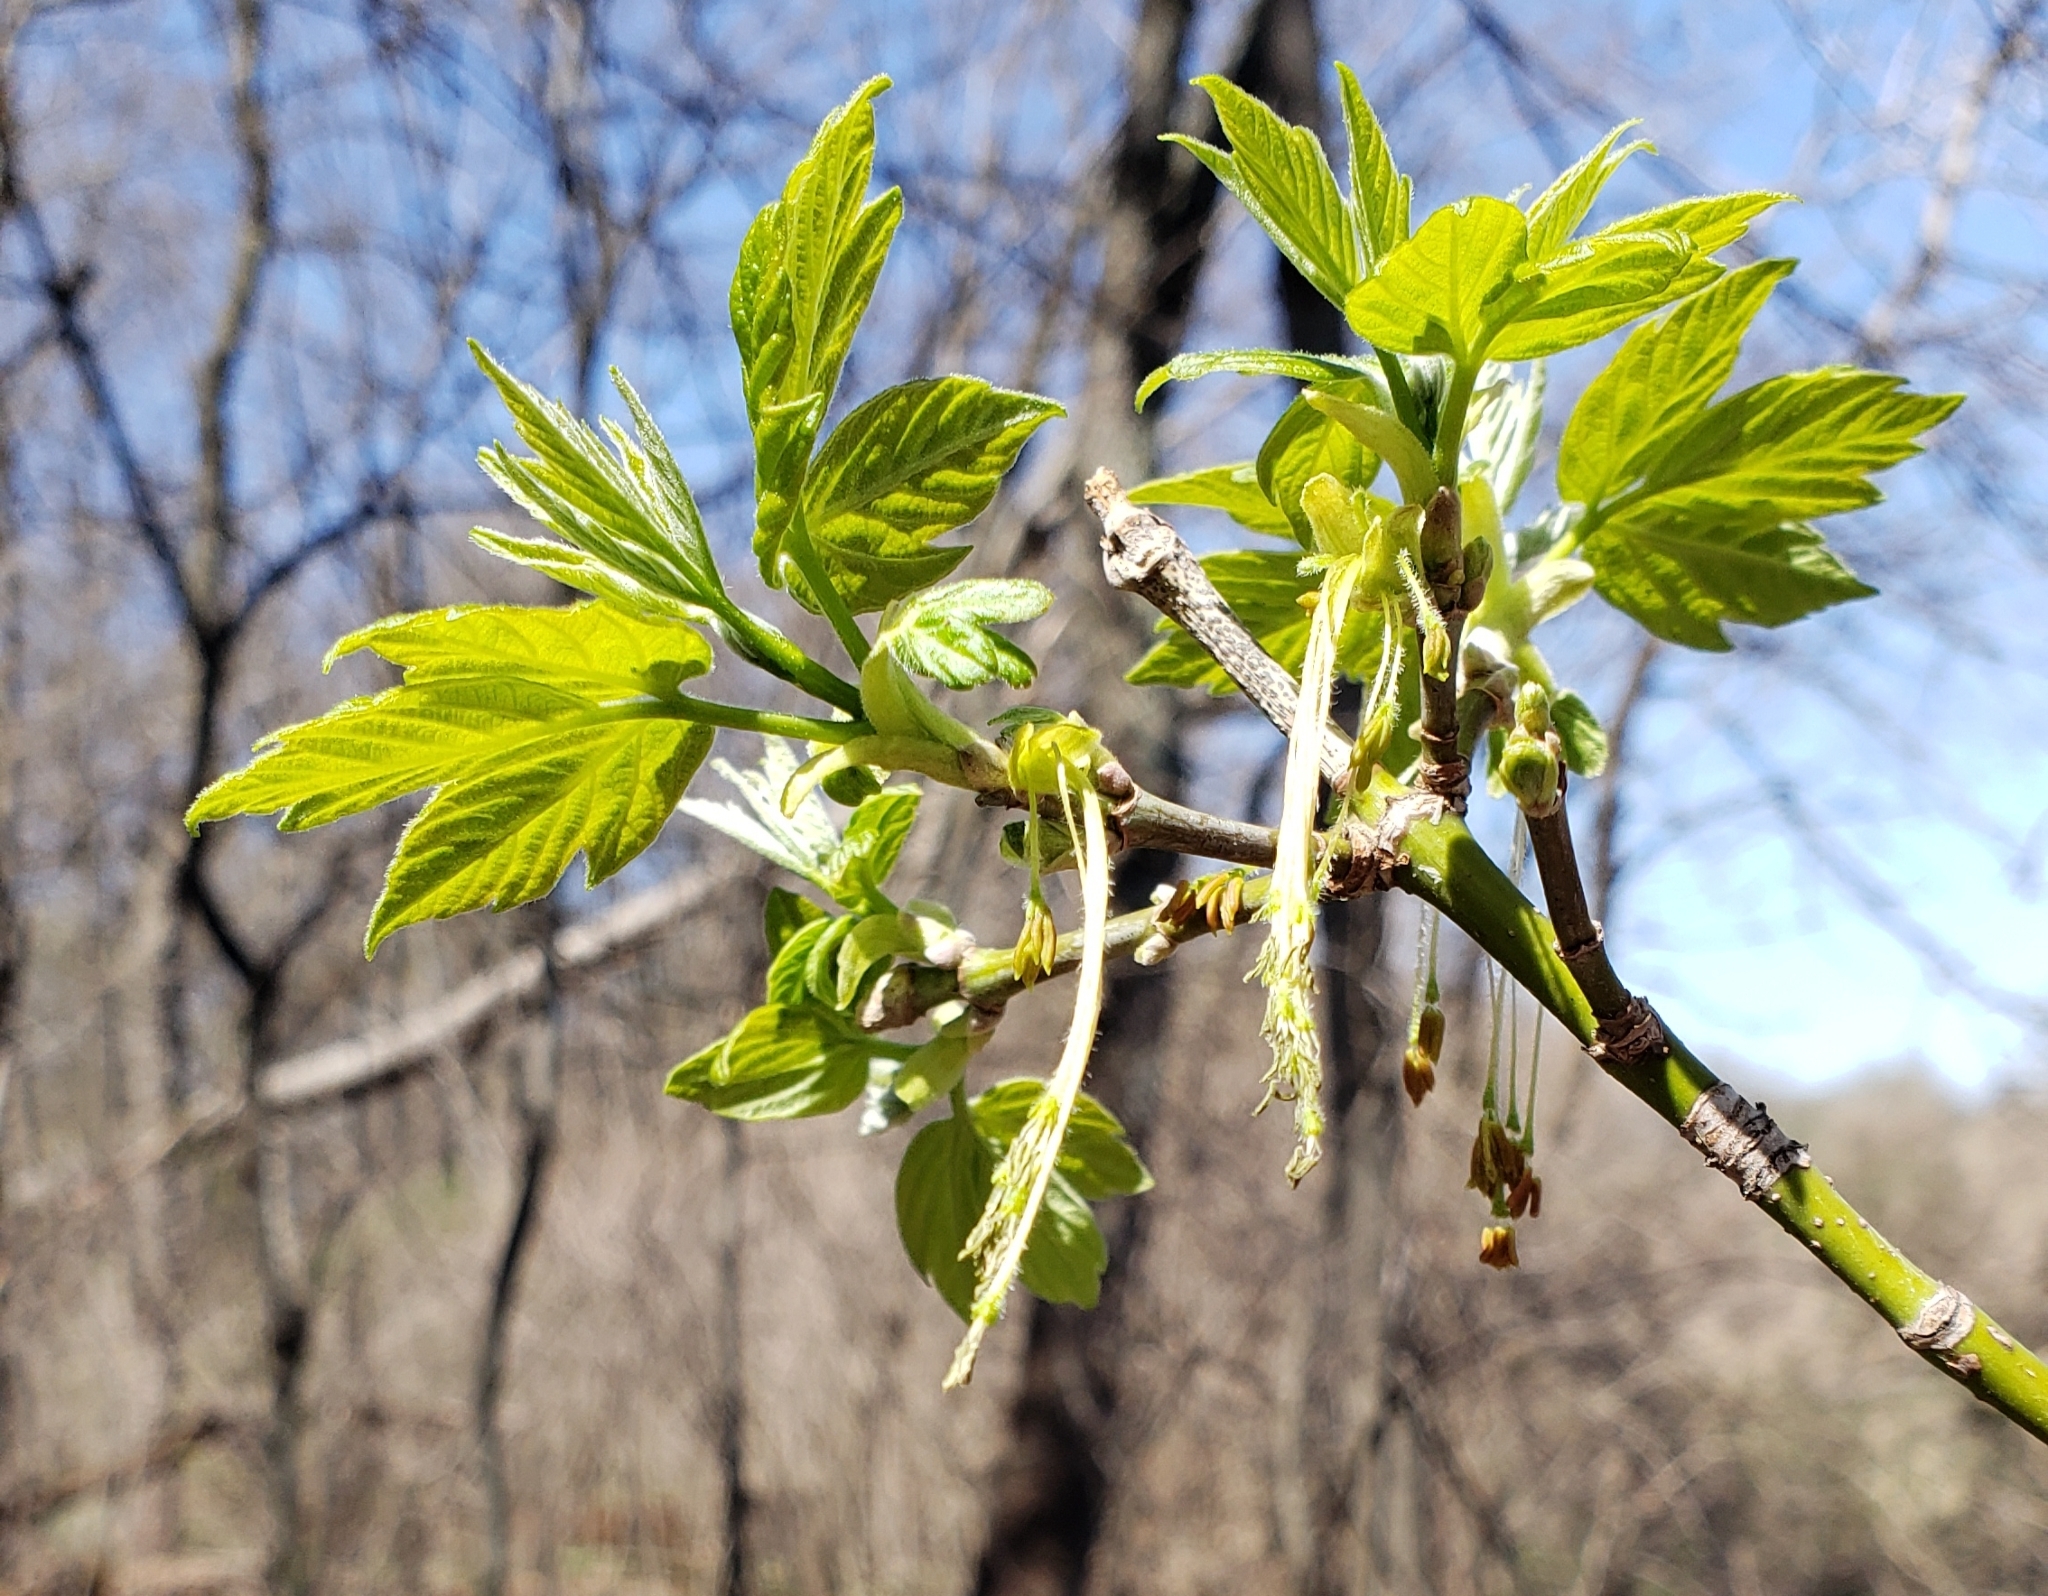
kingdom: Plantae
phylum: Tracheophyta
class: Magnoliopsida
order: Sapindales
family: Sapindaceae
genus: Acer
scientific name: Acer negundo
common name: Ashleaf maple
